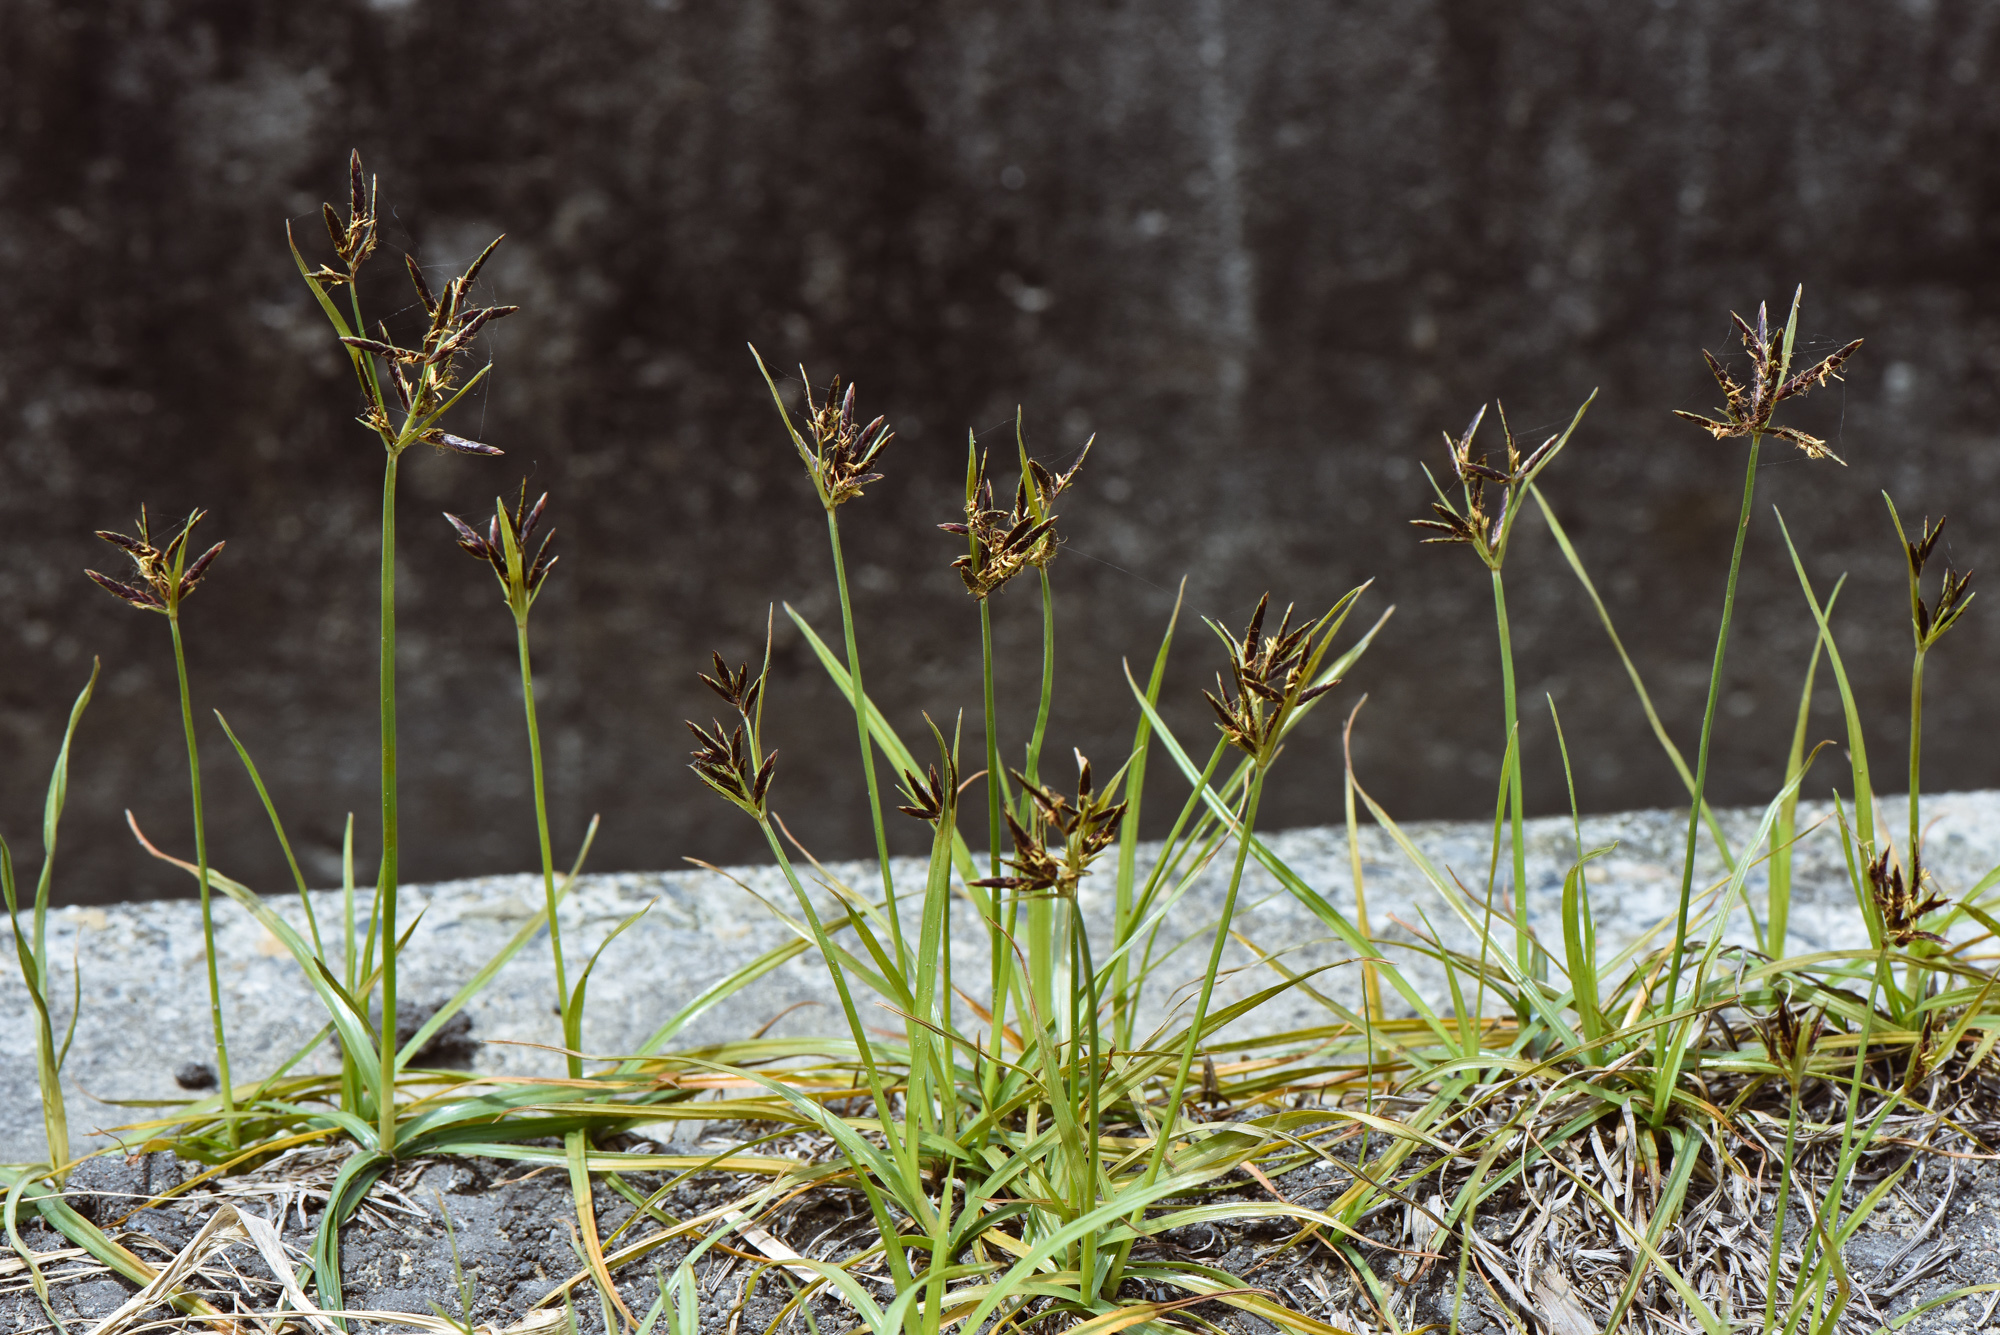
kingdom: Plantae
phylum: Tracheophyta
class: Liliopsida
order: Poales
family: Cyperaceae
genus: Cyperus
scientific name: Cyperus rotundus
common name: Nutgrass
